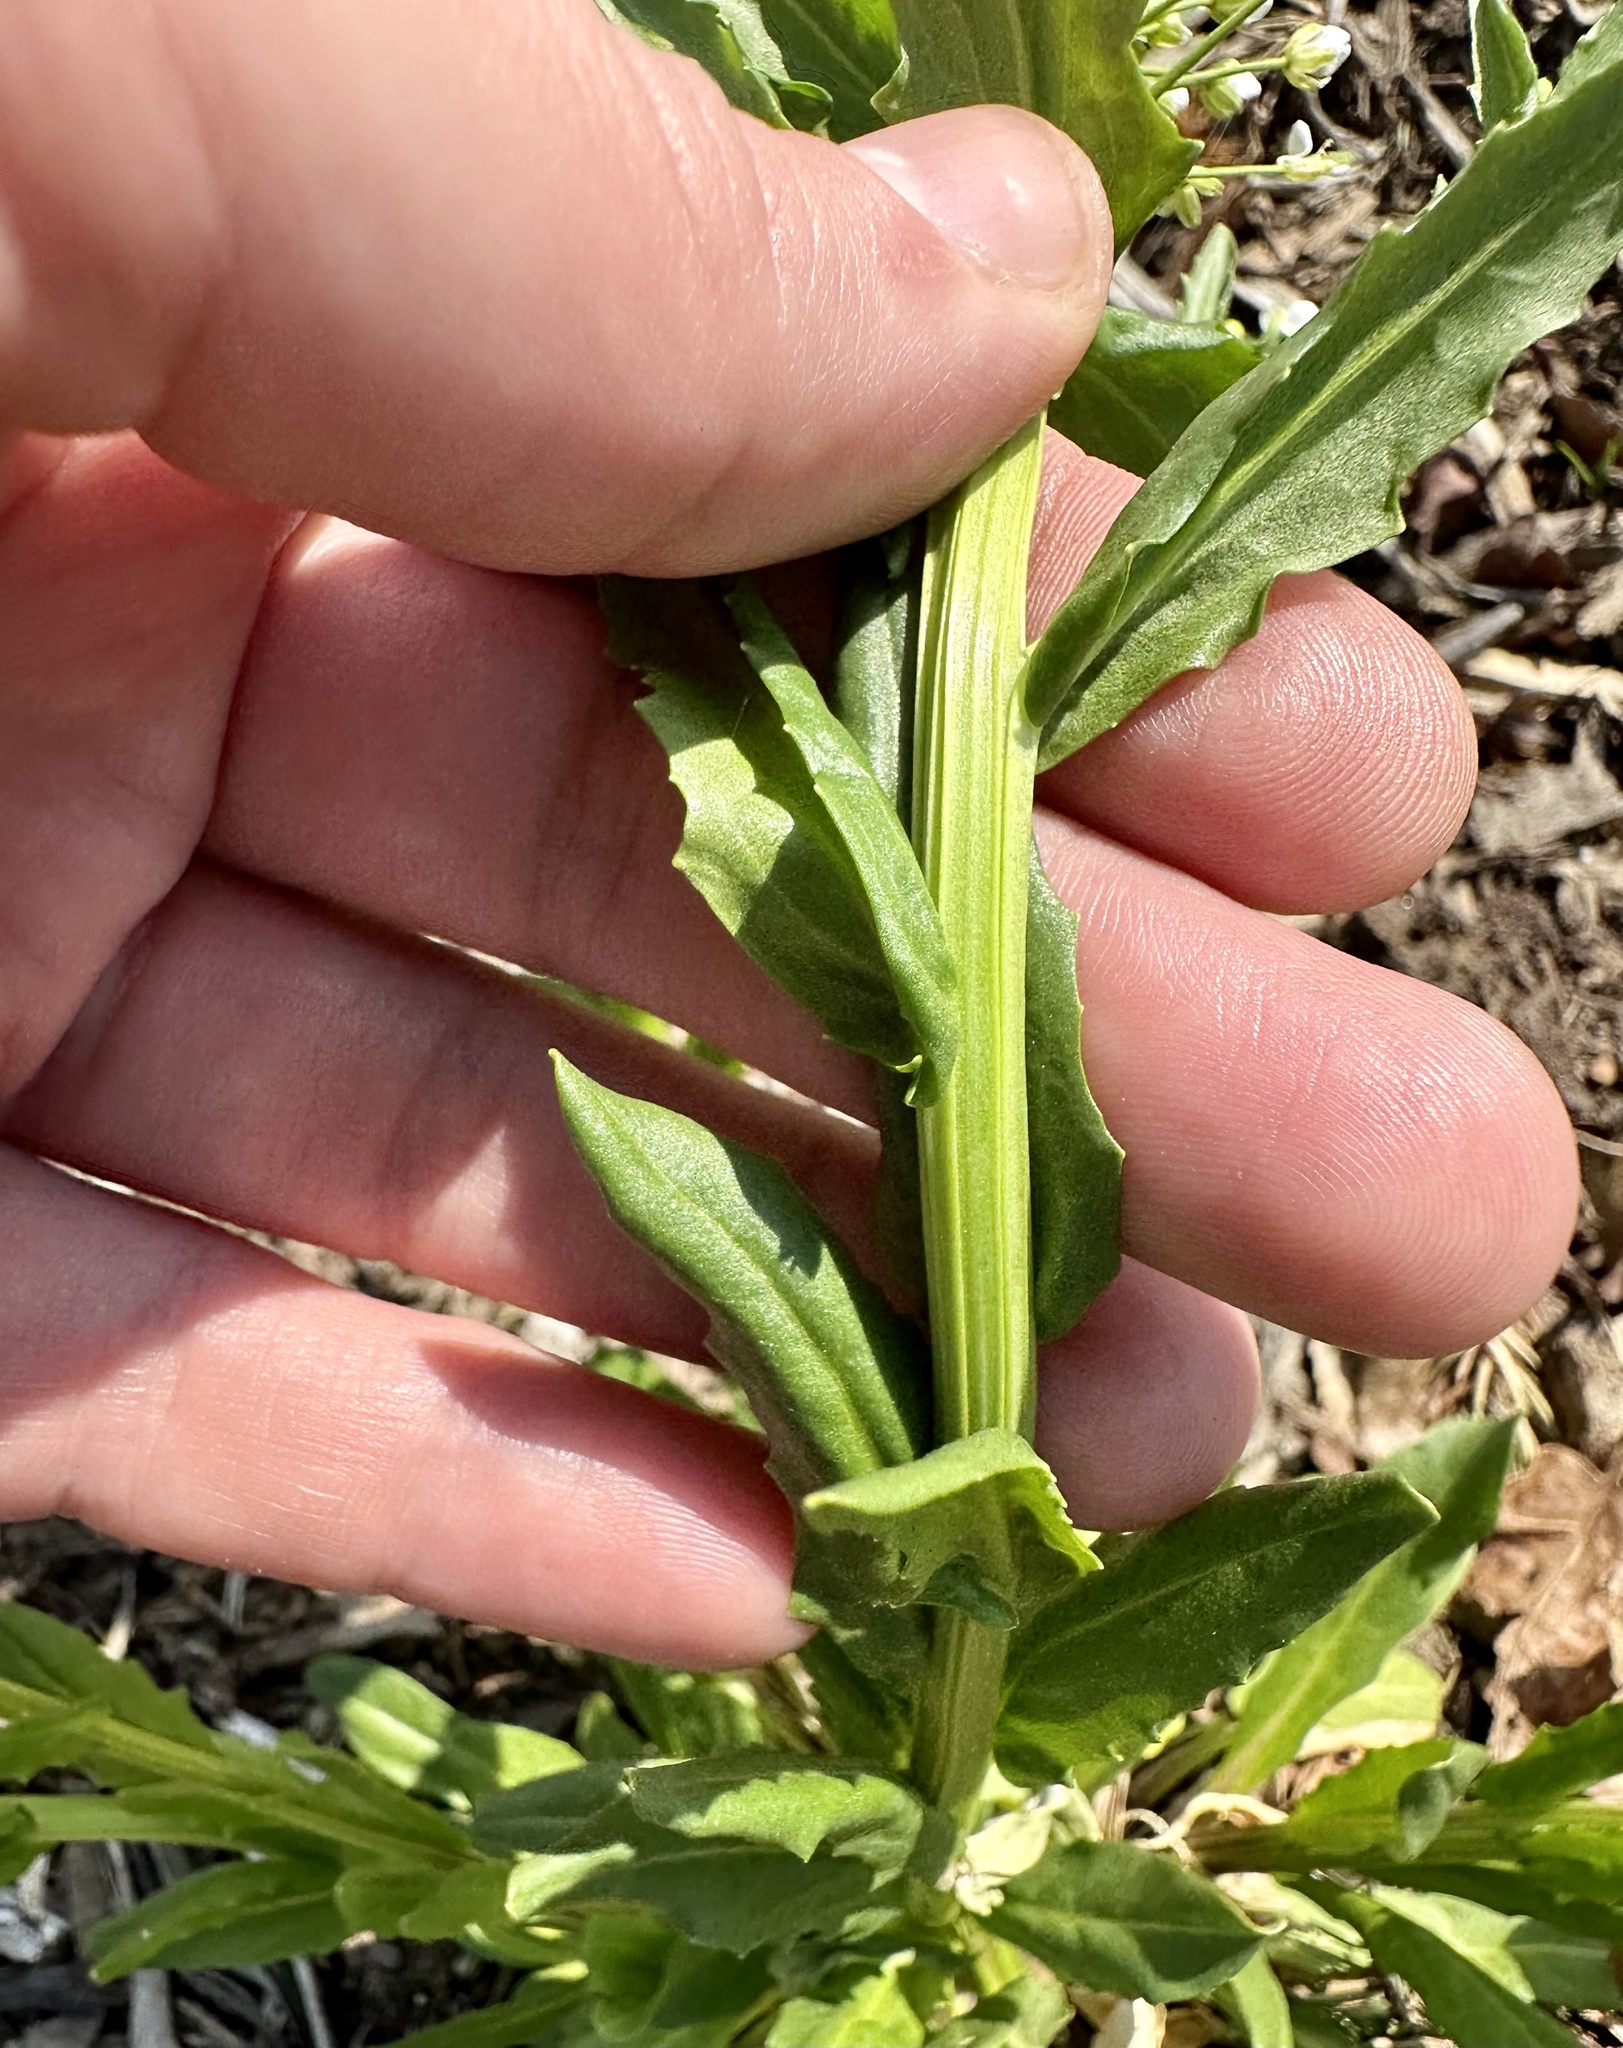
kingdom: Plantae
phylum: Tracheophyta
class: Magnoliopsida
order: Brassicales
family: Brassicaceae
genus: Thlaspi
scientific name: Thlaspi arvense
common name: Field pennycress
